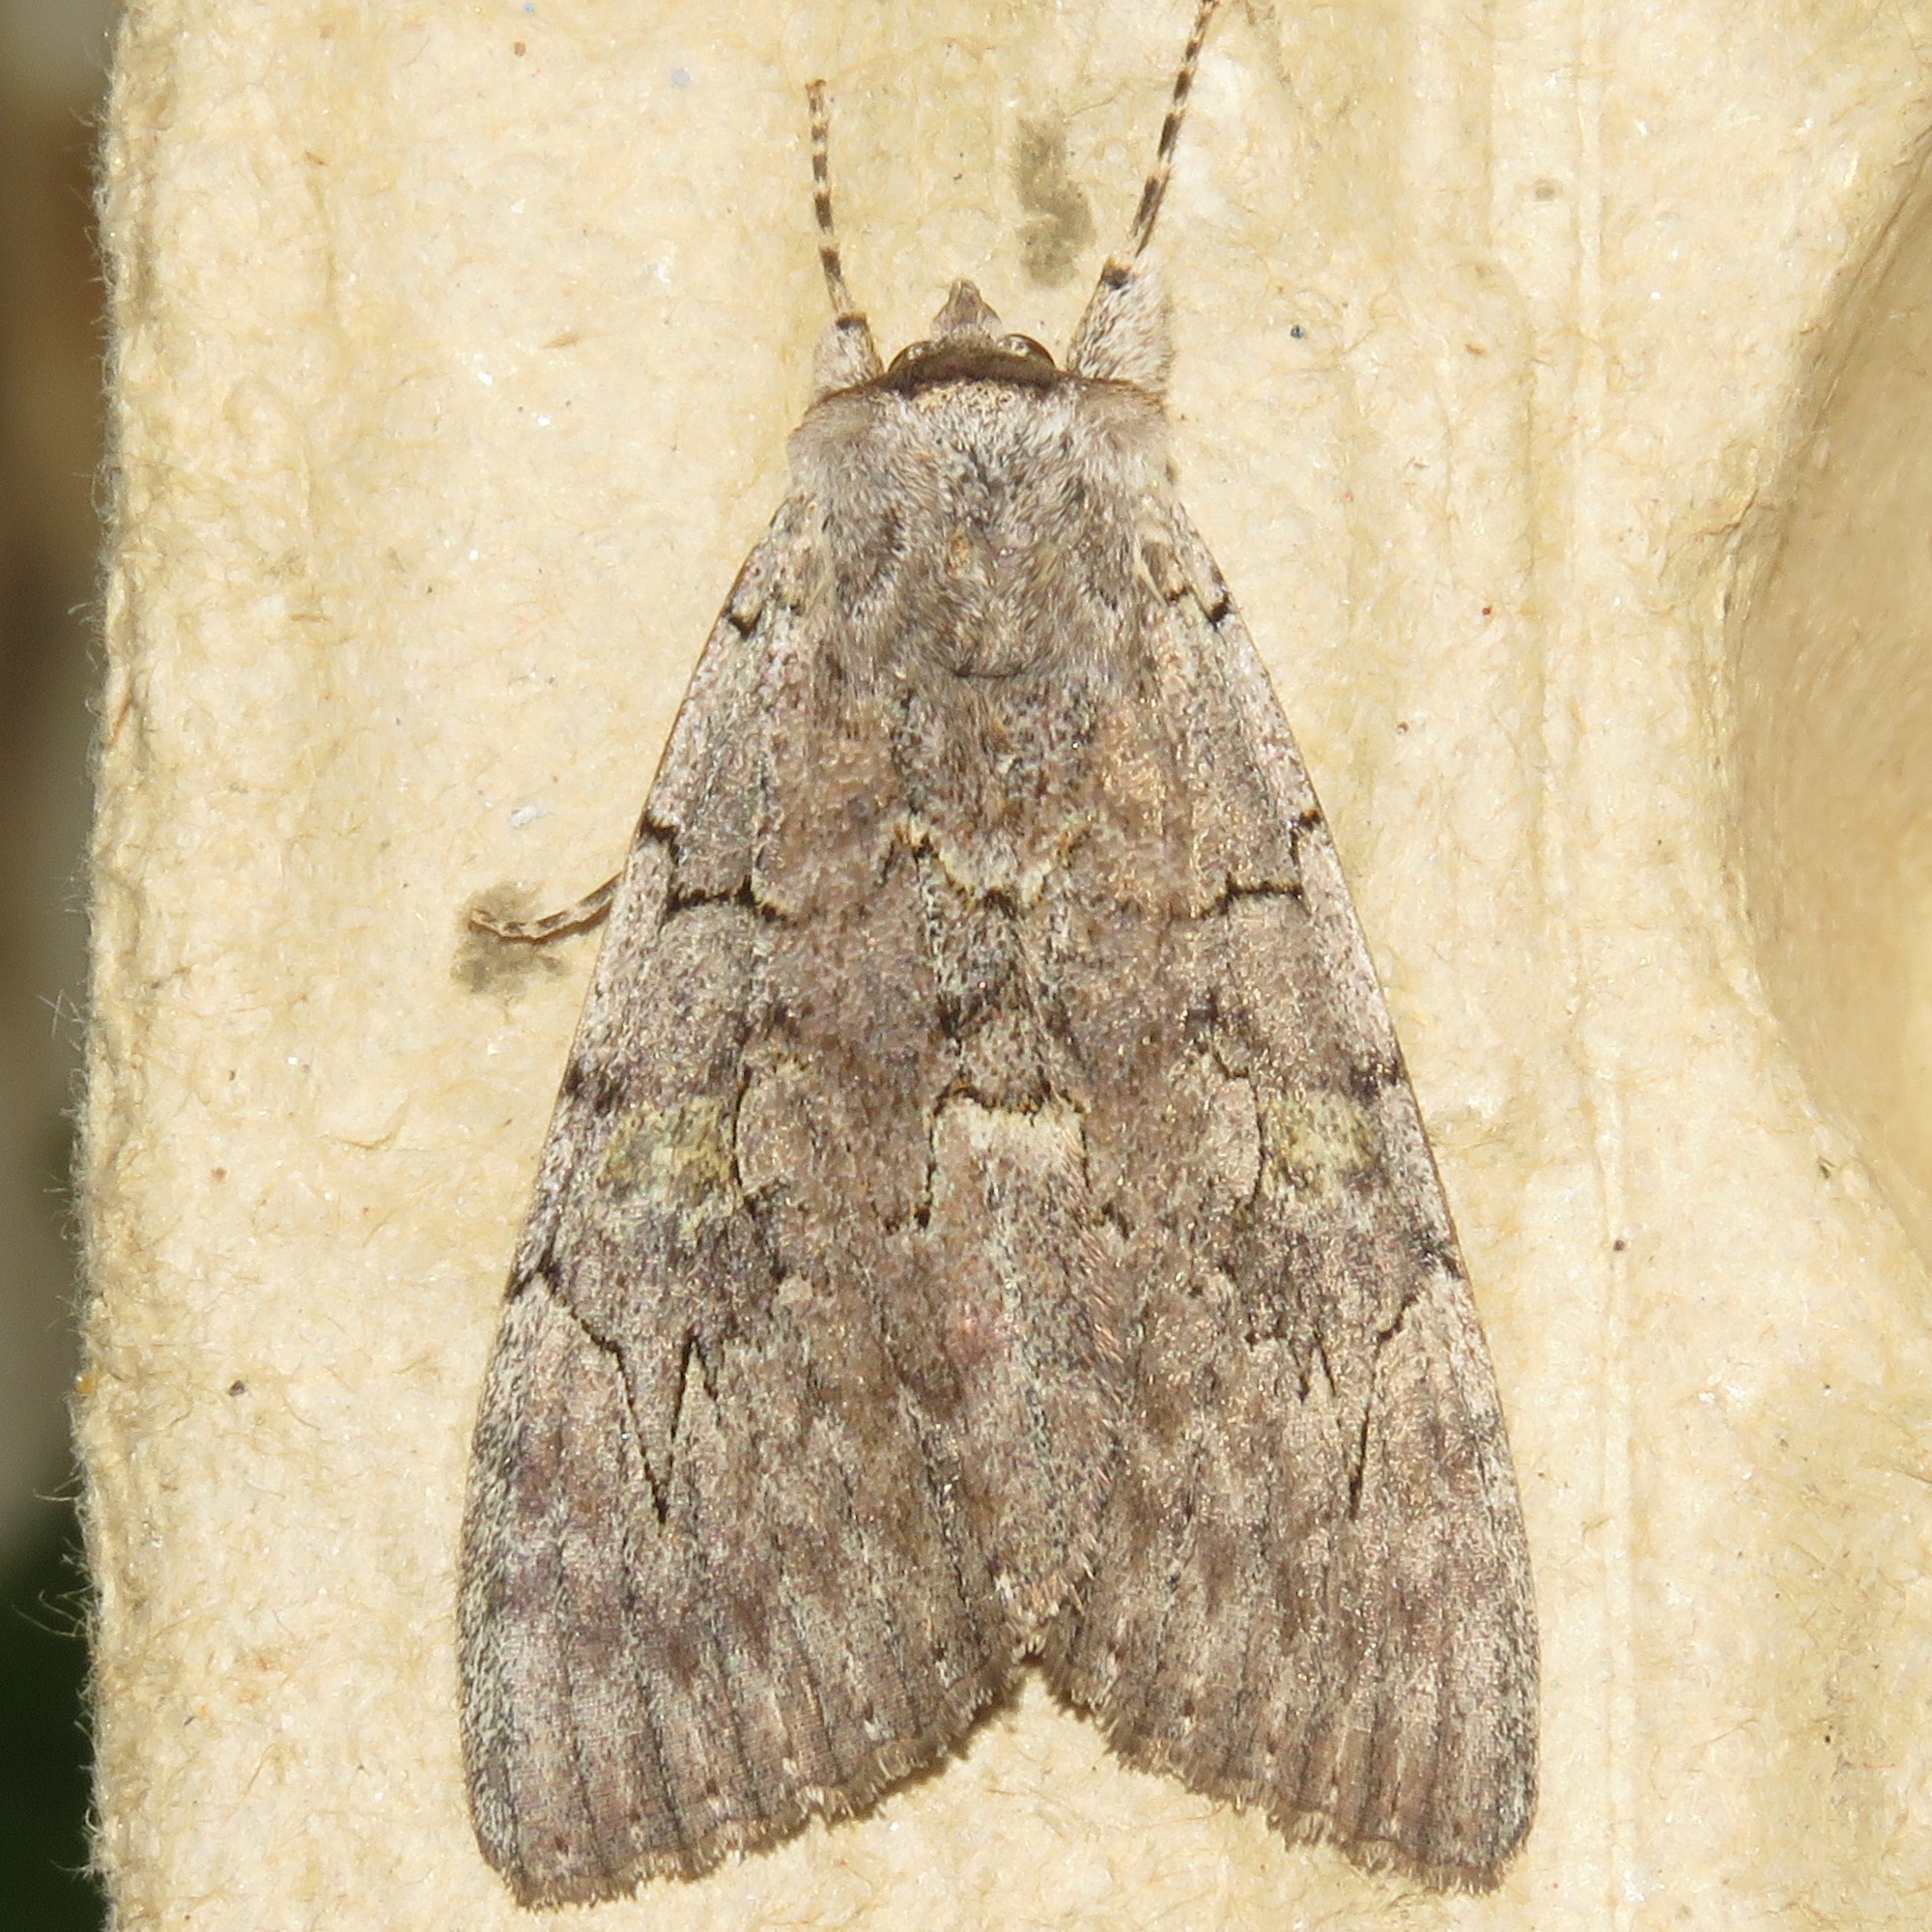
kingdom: Animalia
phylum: Arthropoda
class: Insecta
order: Lepidoptera
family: Erebidae
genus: Catocala
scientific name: Catocala concumbens
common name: Pink underwing
